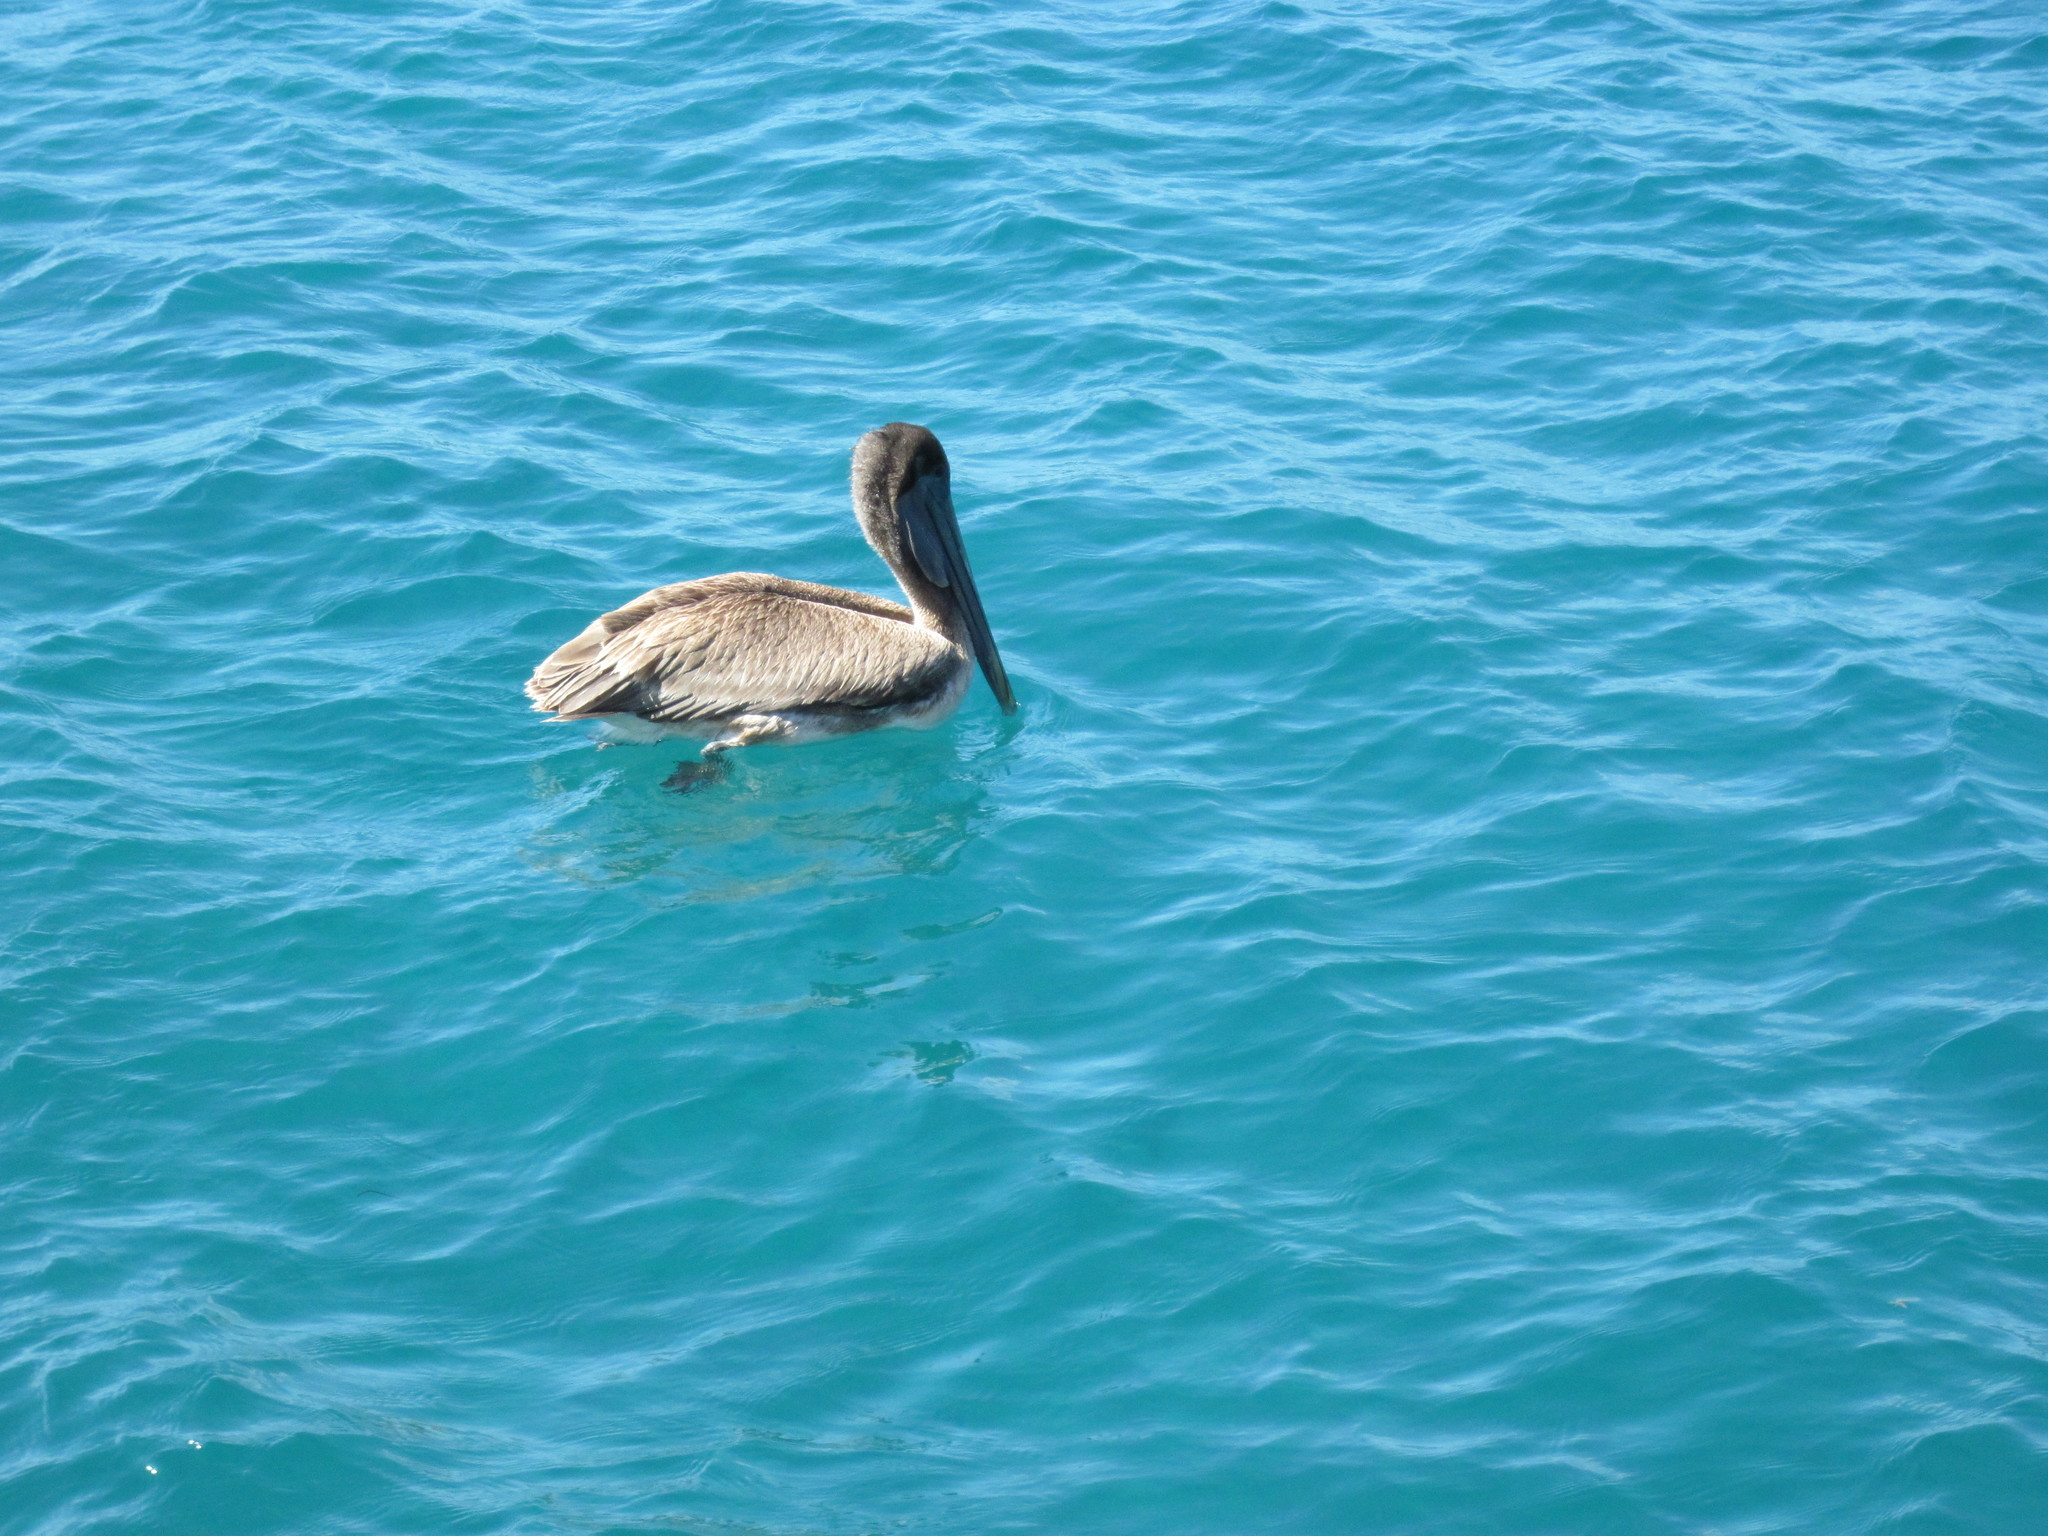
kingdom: Animalia
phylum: Chordata
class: Aves
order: Pelecaniformes
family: Pelecanidae
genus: Pelecanus
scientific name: Pelecanus occidentalis
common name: Brown pelican
